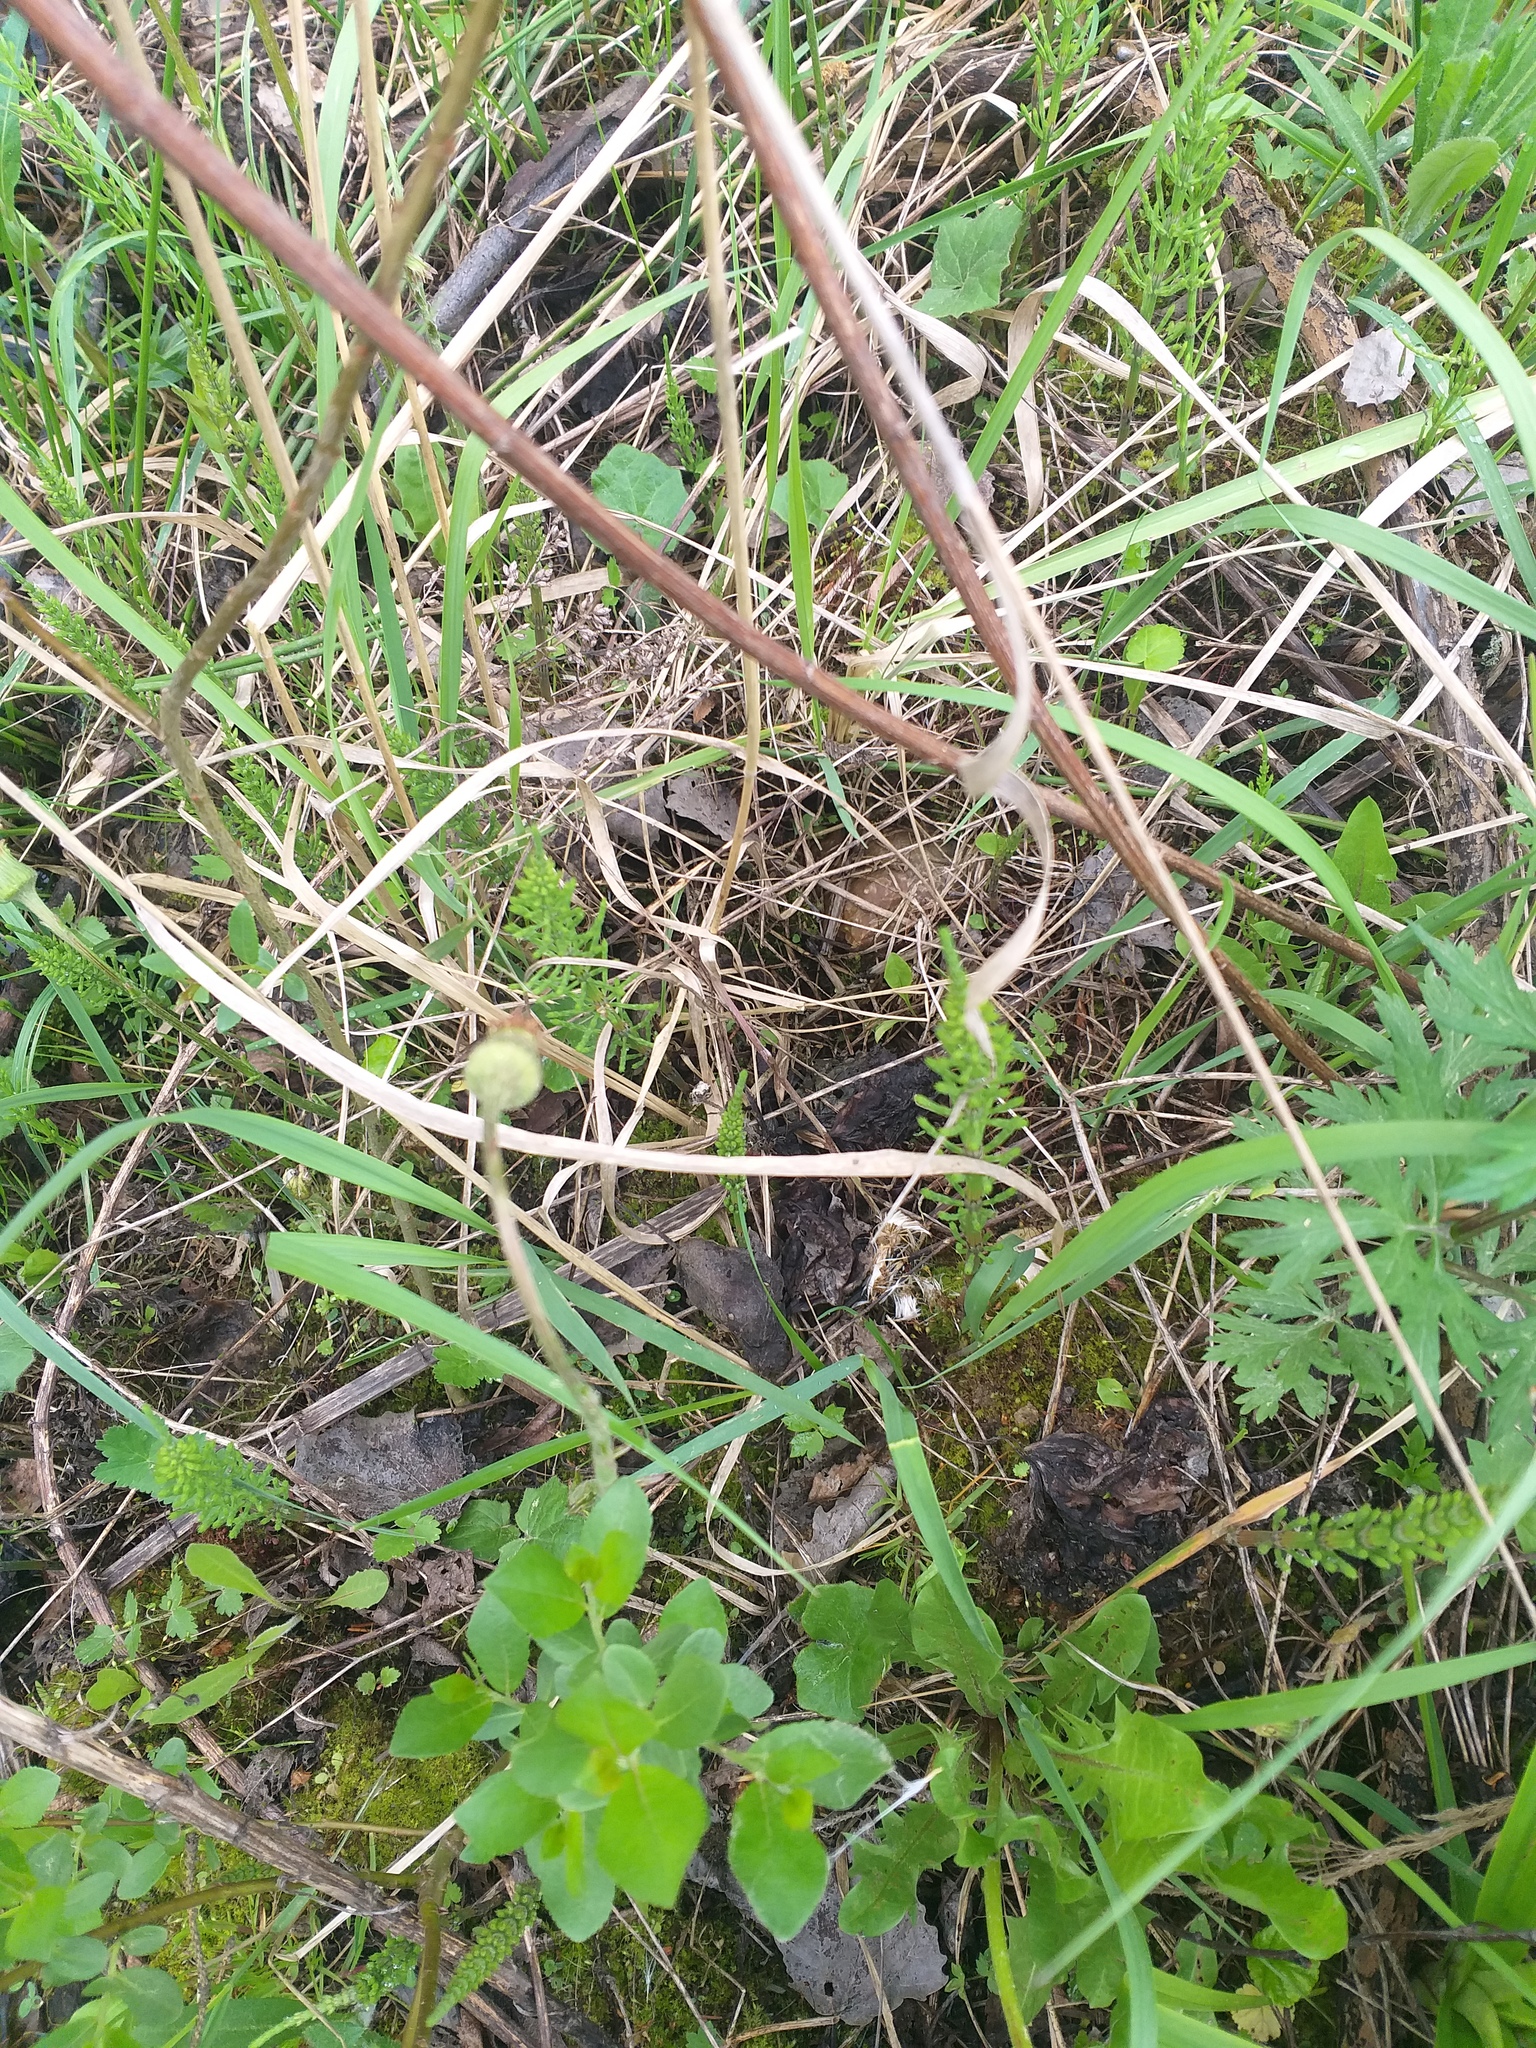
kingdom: Plantae
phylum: Tracheophyta
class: Polypodiopsida
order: Equisetales
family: Equisetaceae
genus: Equisetum
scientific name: Equisetum arvense
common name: Field horsetail
